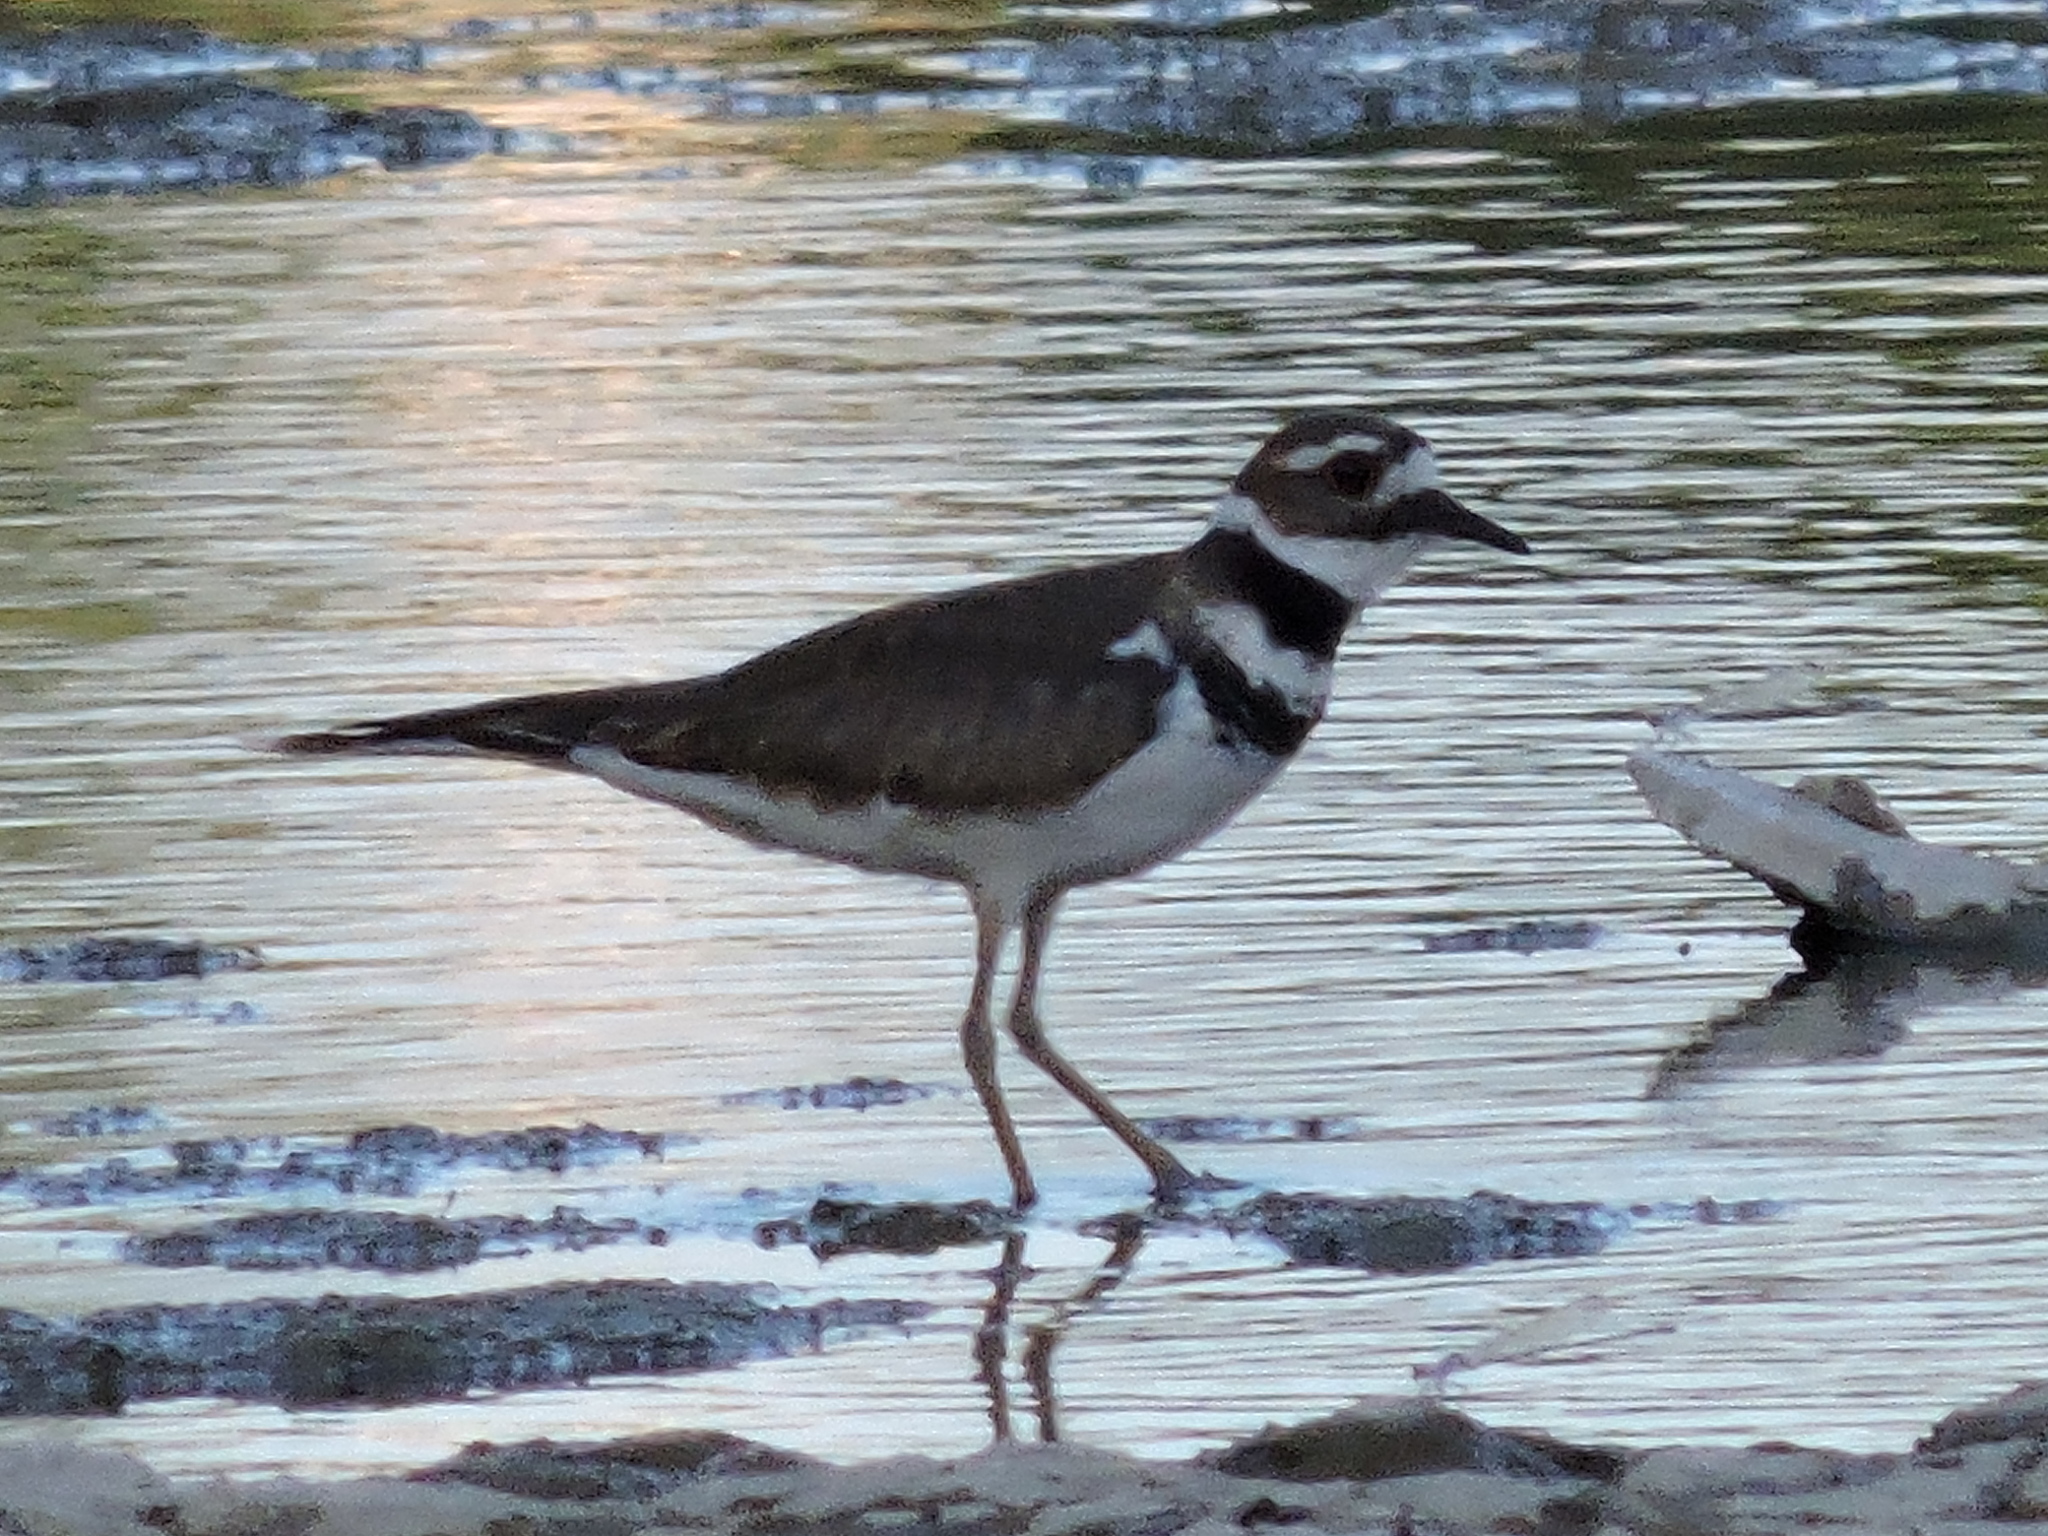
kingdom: Animalia
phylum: Chordata
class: Aves
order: Charadriiformes
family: Charadriidae
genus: Charadrius
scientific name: Charadrius vociferus
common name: Killdeer
